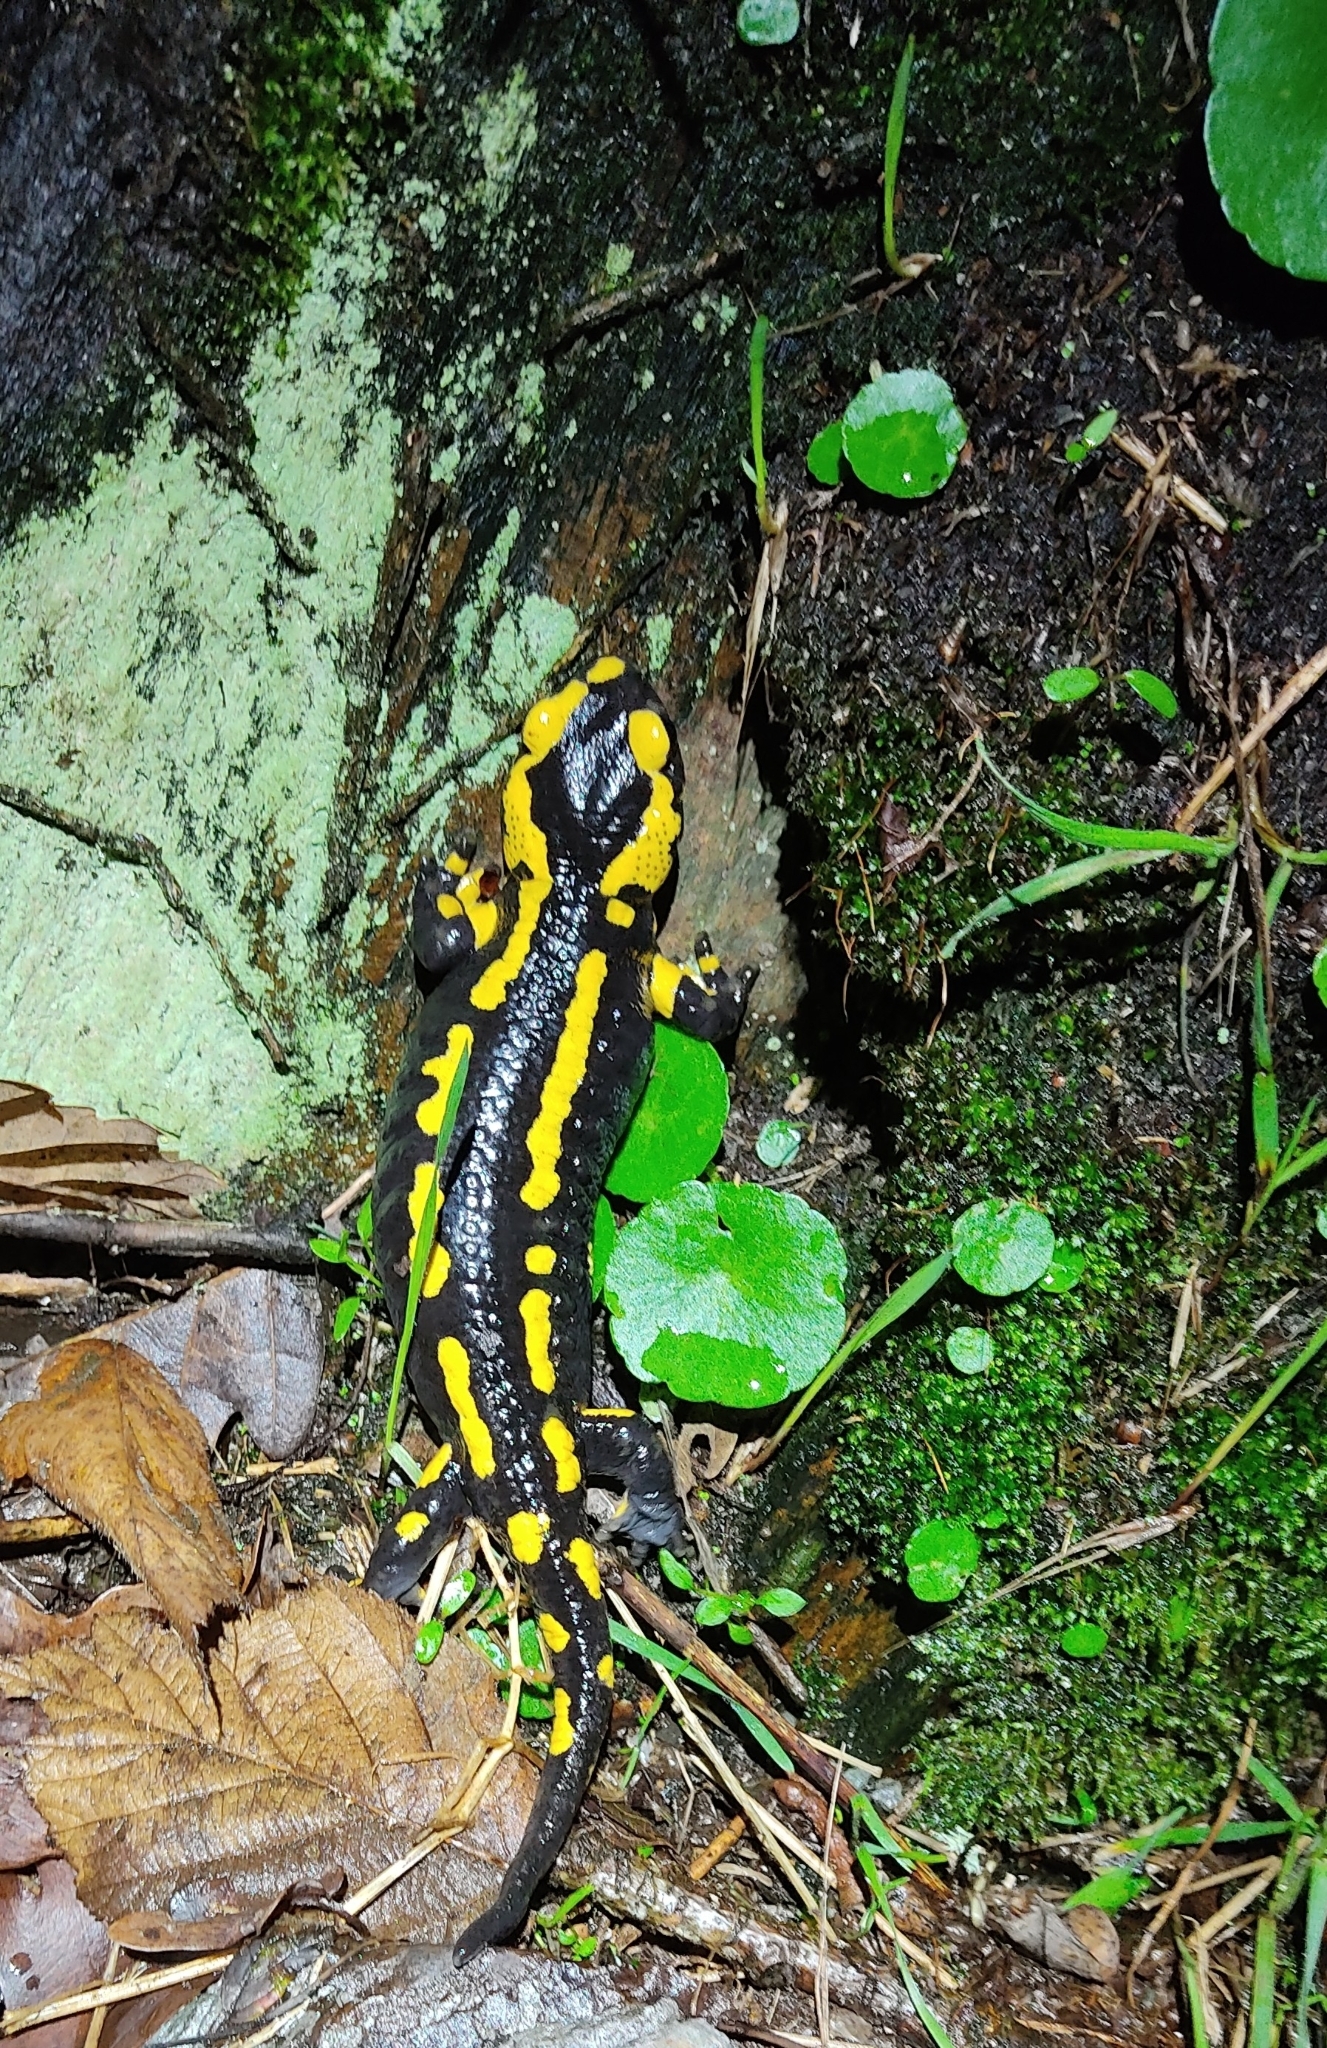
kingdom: Animalia
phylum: Chordata
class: Amphibia
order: Caudata
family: Salamandridae
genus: Salamandra
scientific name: Salamandra salamandra
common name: Fire salamander
